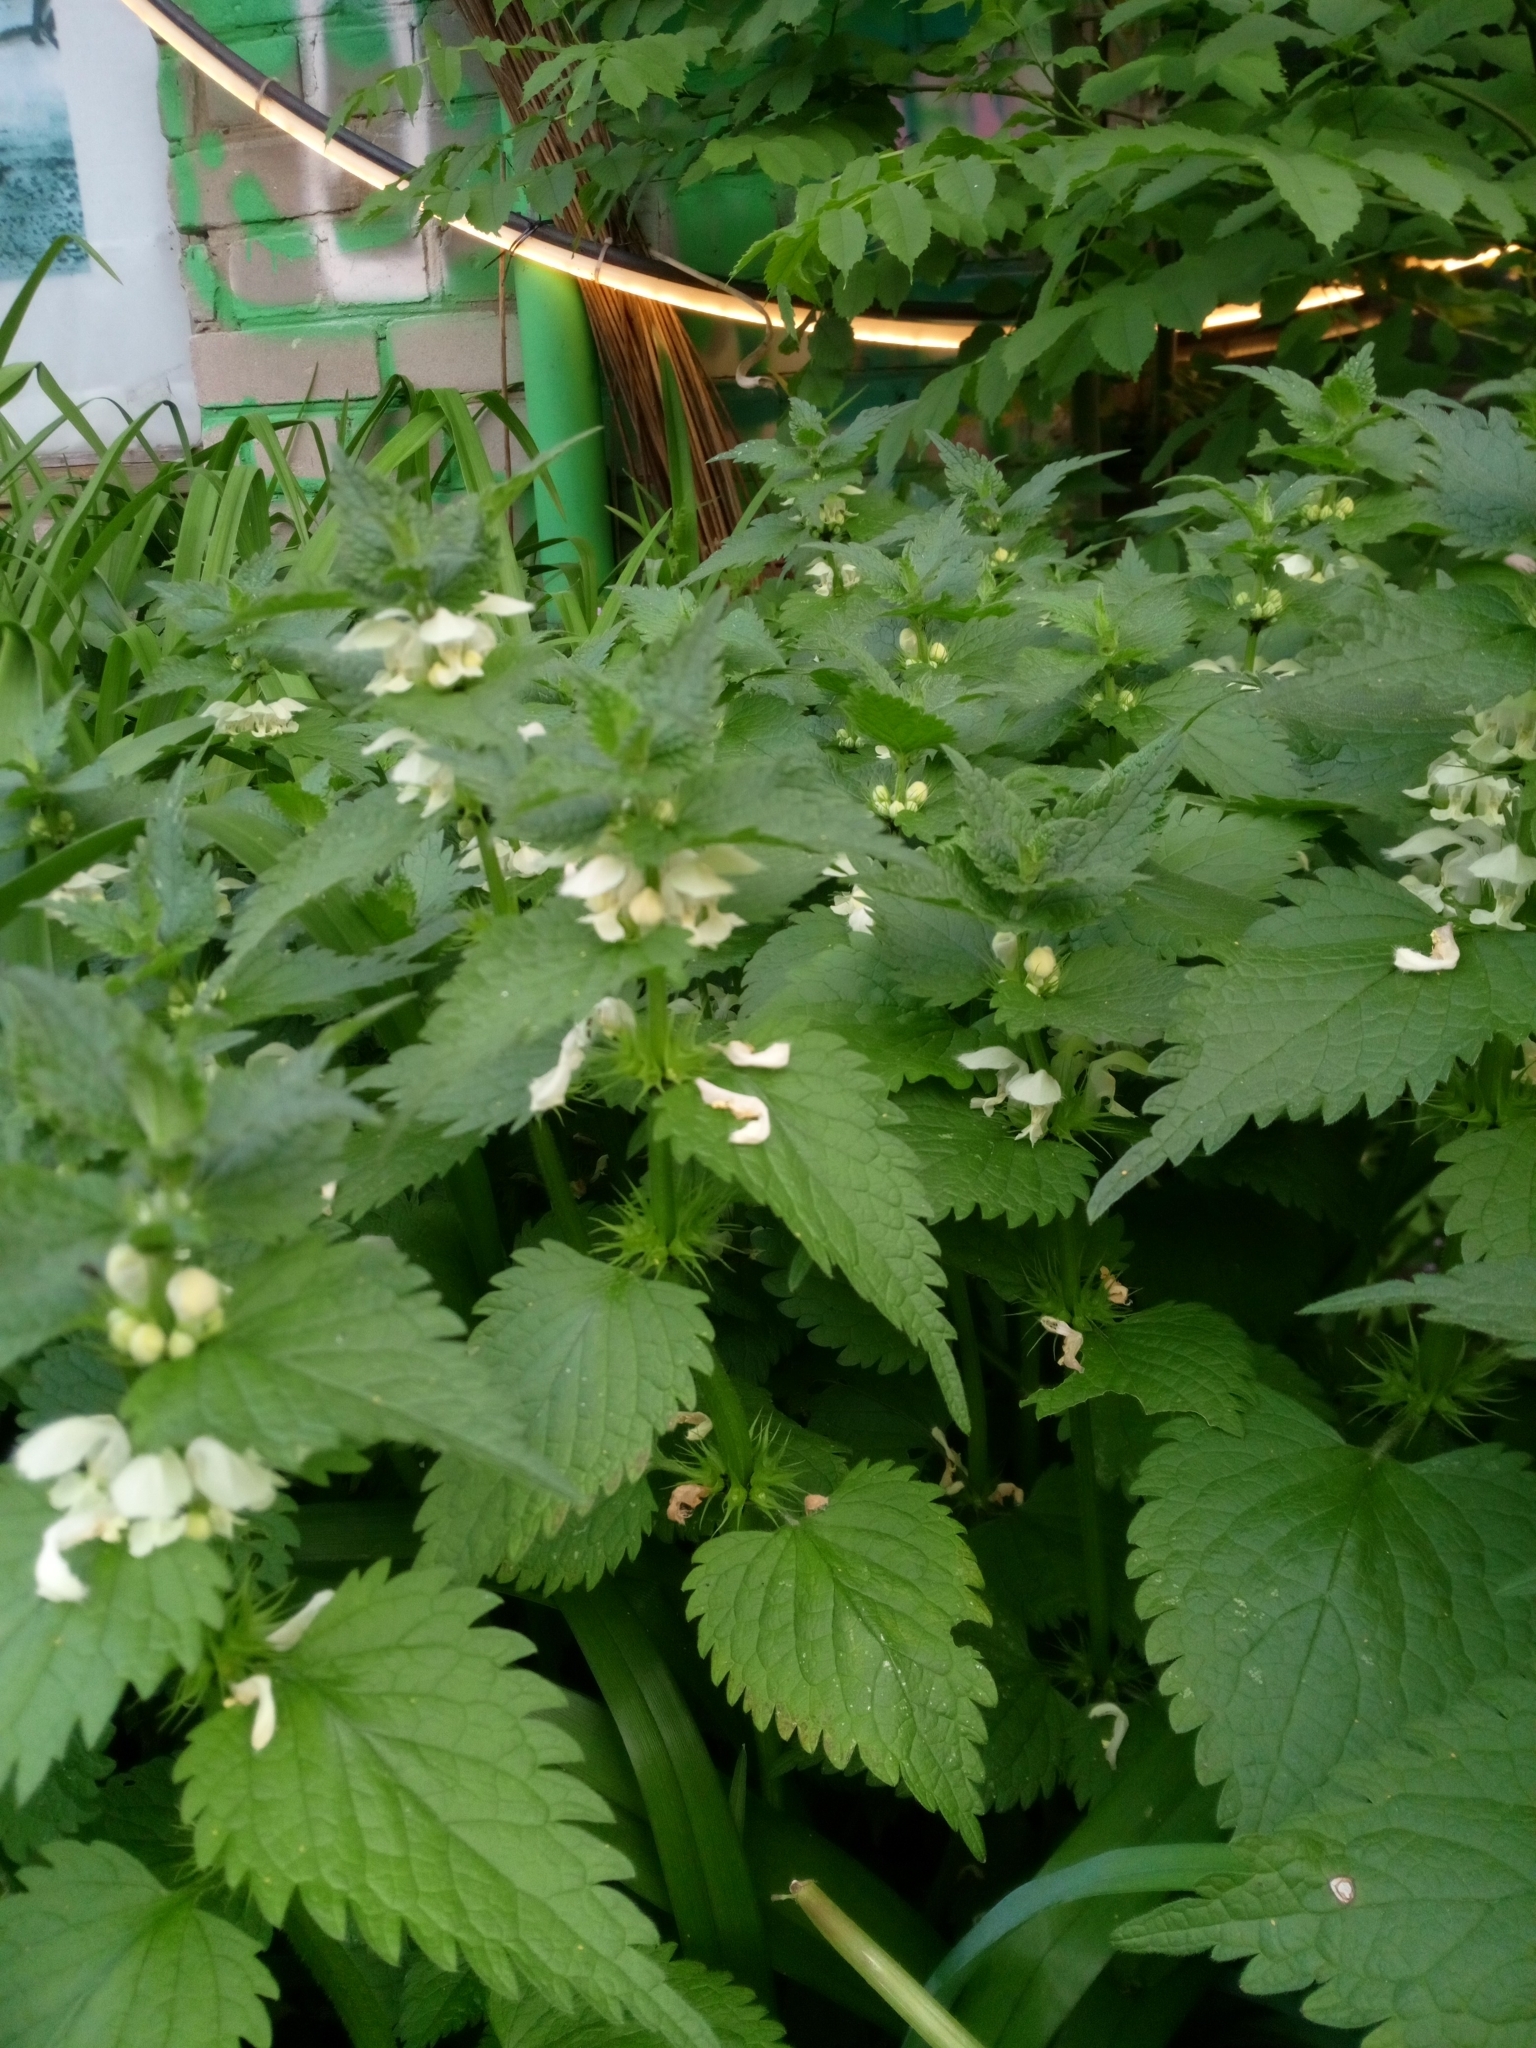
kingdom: Plantae
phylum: Tracheophyta
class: Magnoliopsida
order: Lamiales
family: Lamiaceae
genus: Lamium
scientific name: Lamium album
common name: White dead-nettle
